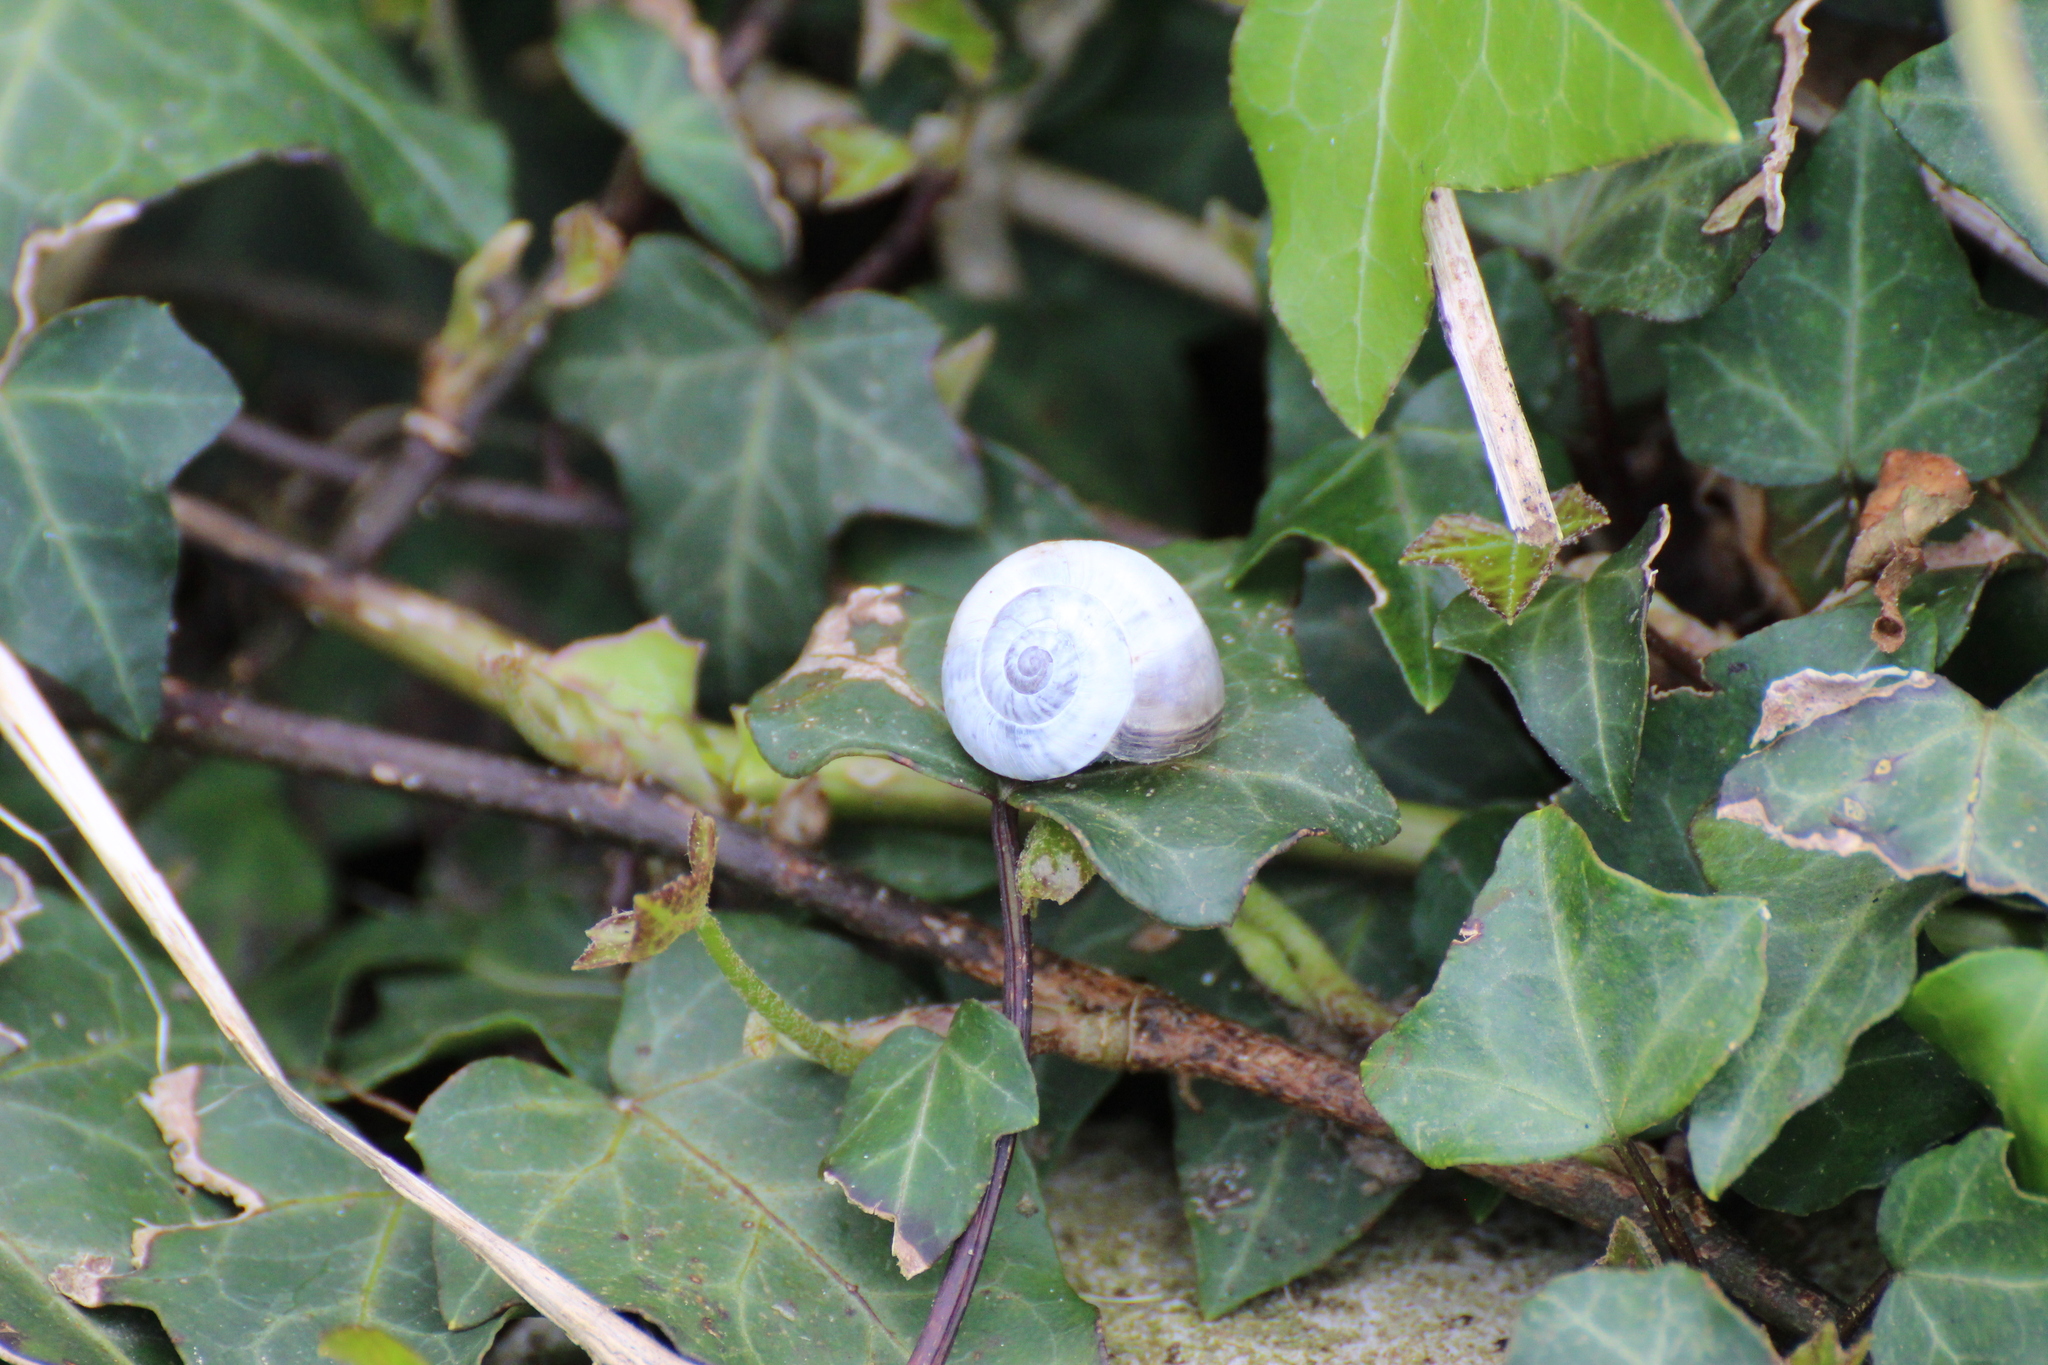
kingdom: Animalia
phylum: Mollusca
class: Gastropoda
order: Stylommatophora
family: Helicidae
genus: Theba
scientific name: Theba pisana
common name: White snail
